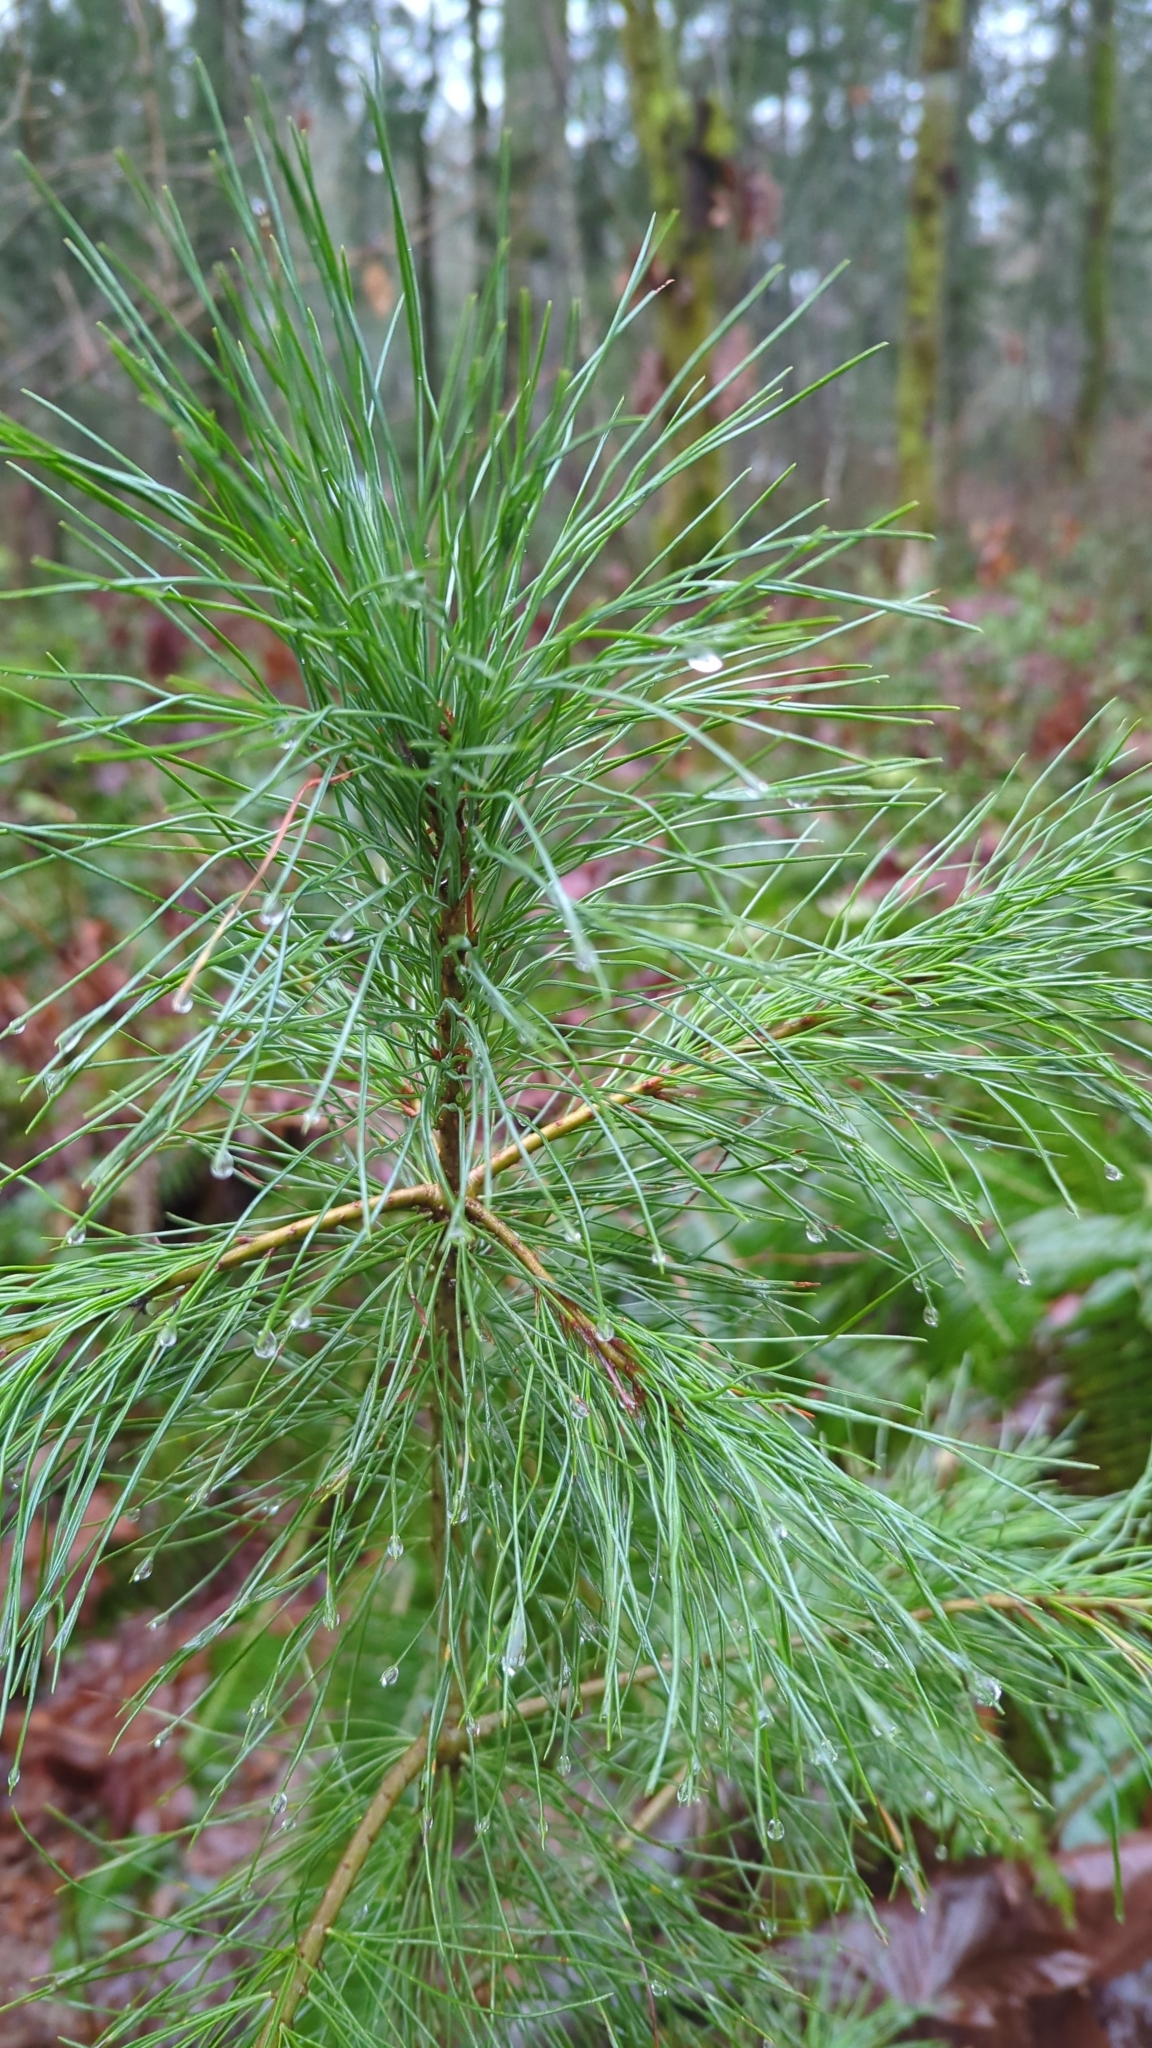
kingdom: Plantae
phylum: Tracheophyta
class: Pinopsida
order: Pinales
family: Pinaceae
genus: Pinus
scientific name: Pinus monticola
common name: Western white pine
